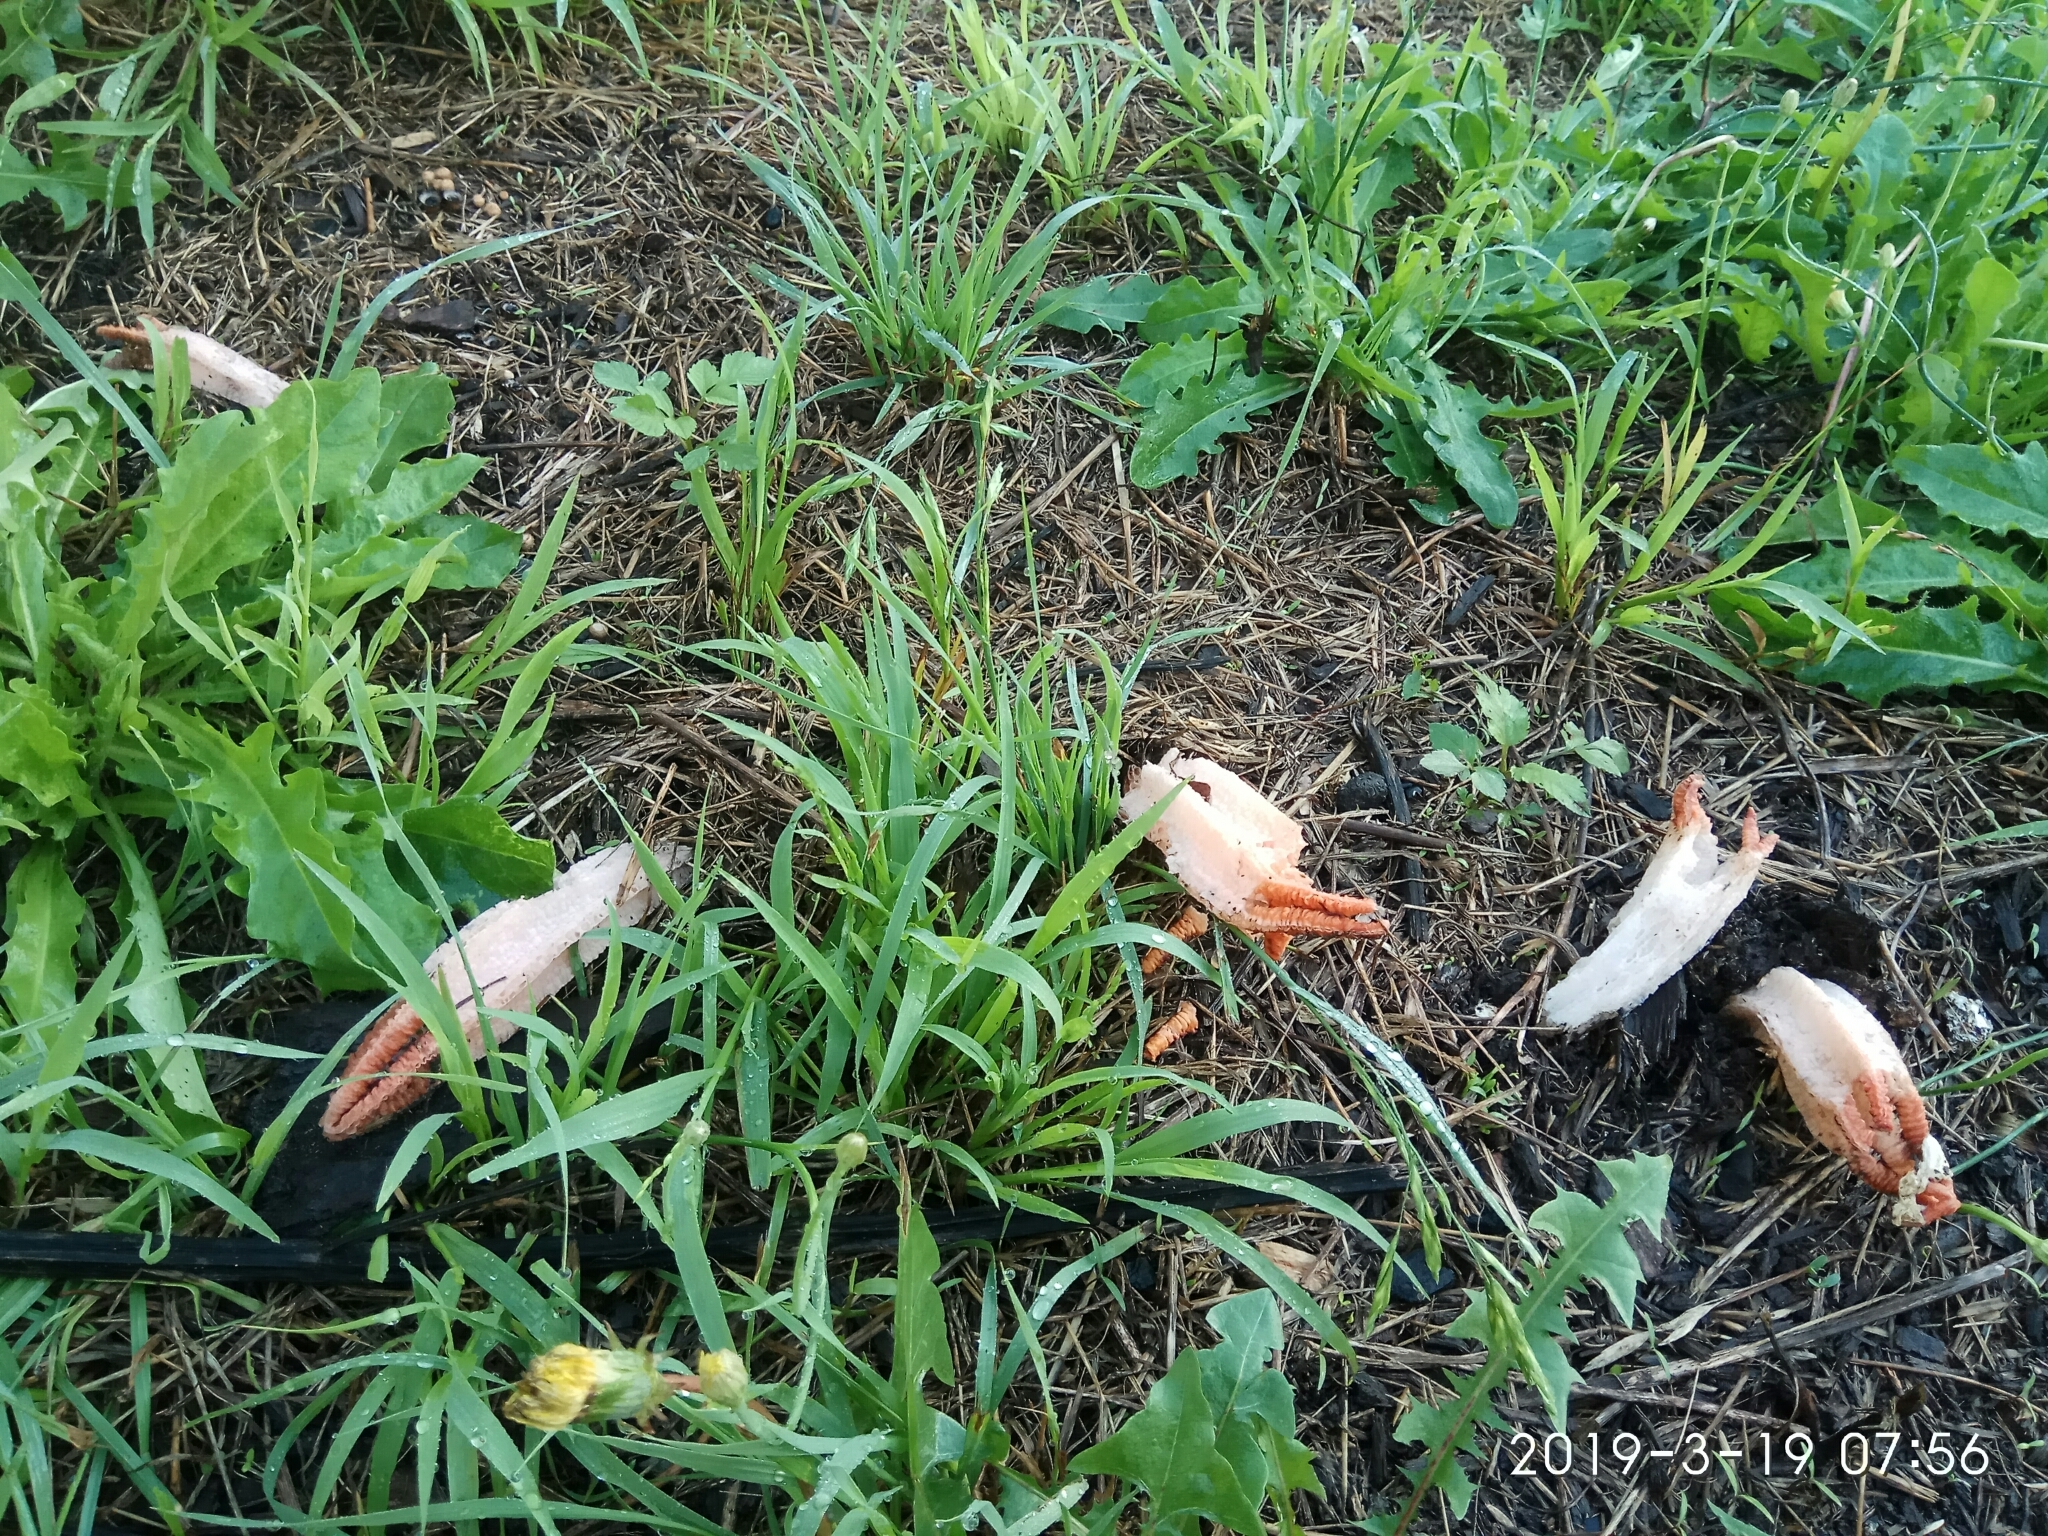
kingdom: Fungi
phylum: Basidiomycota
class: Agaricomycetes
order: Phallales
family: Phallaceae
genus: Lysurus
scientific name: Lysurus mokusin
